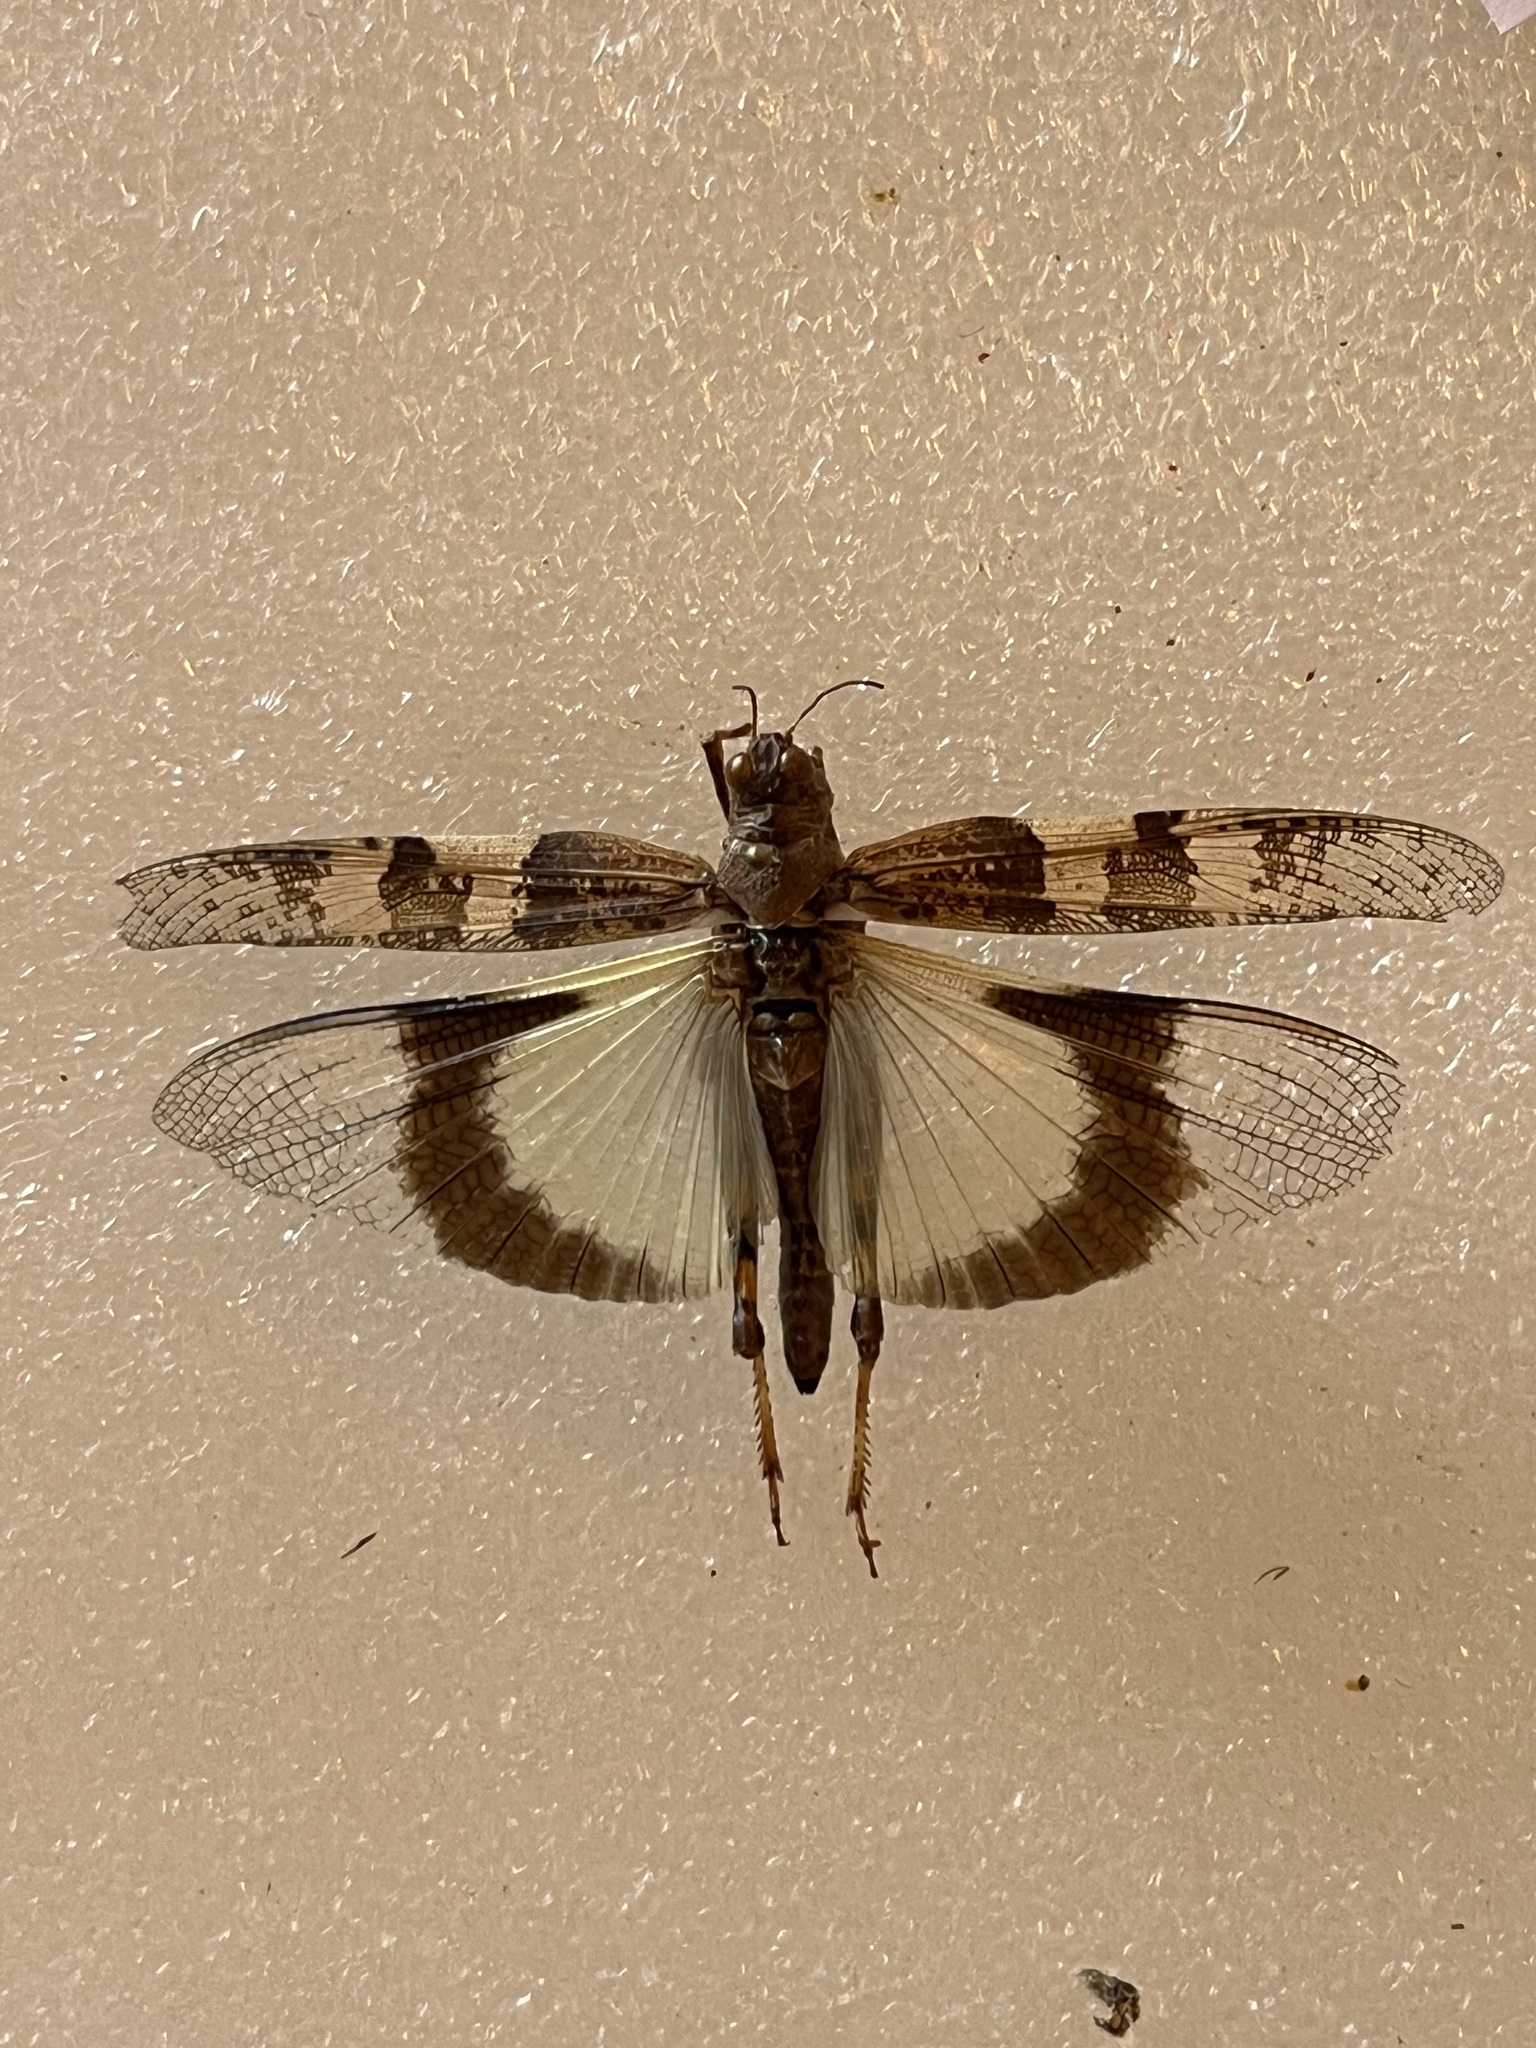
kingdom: Animalia
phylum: Arthropoda
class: Insecta
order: Orthoptera
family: Acrididae
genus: Trimerotropis
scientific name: Trimerotropis pallidipennis
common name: Pallid-winged grasshopper
